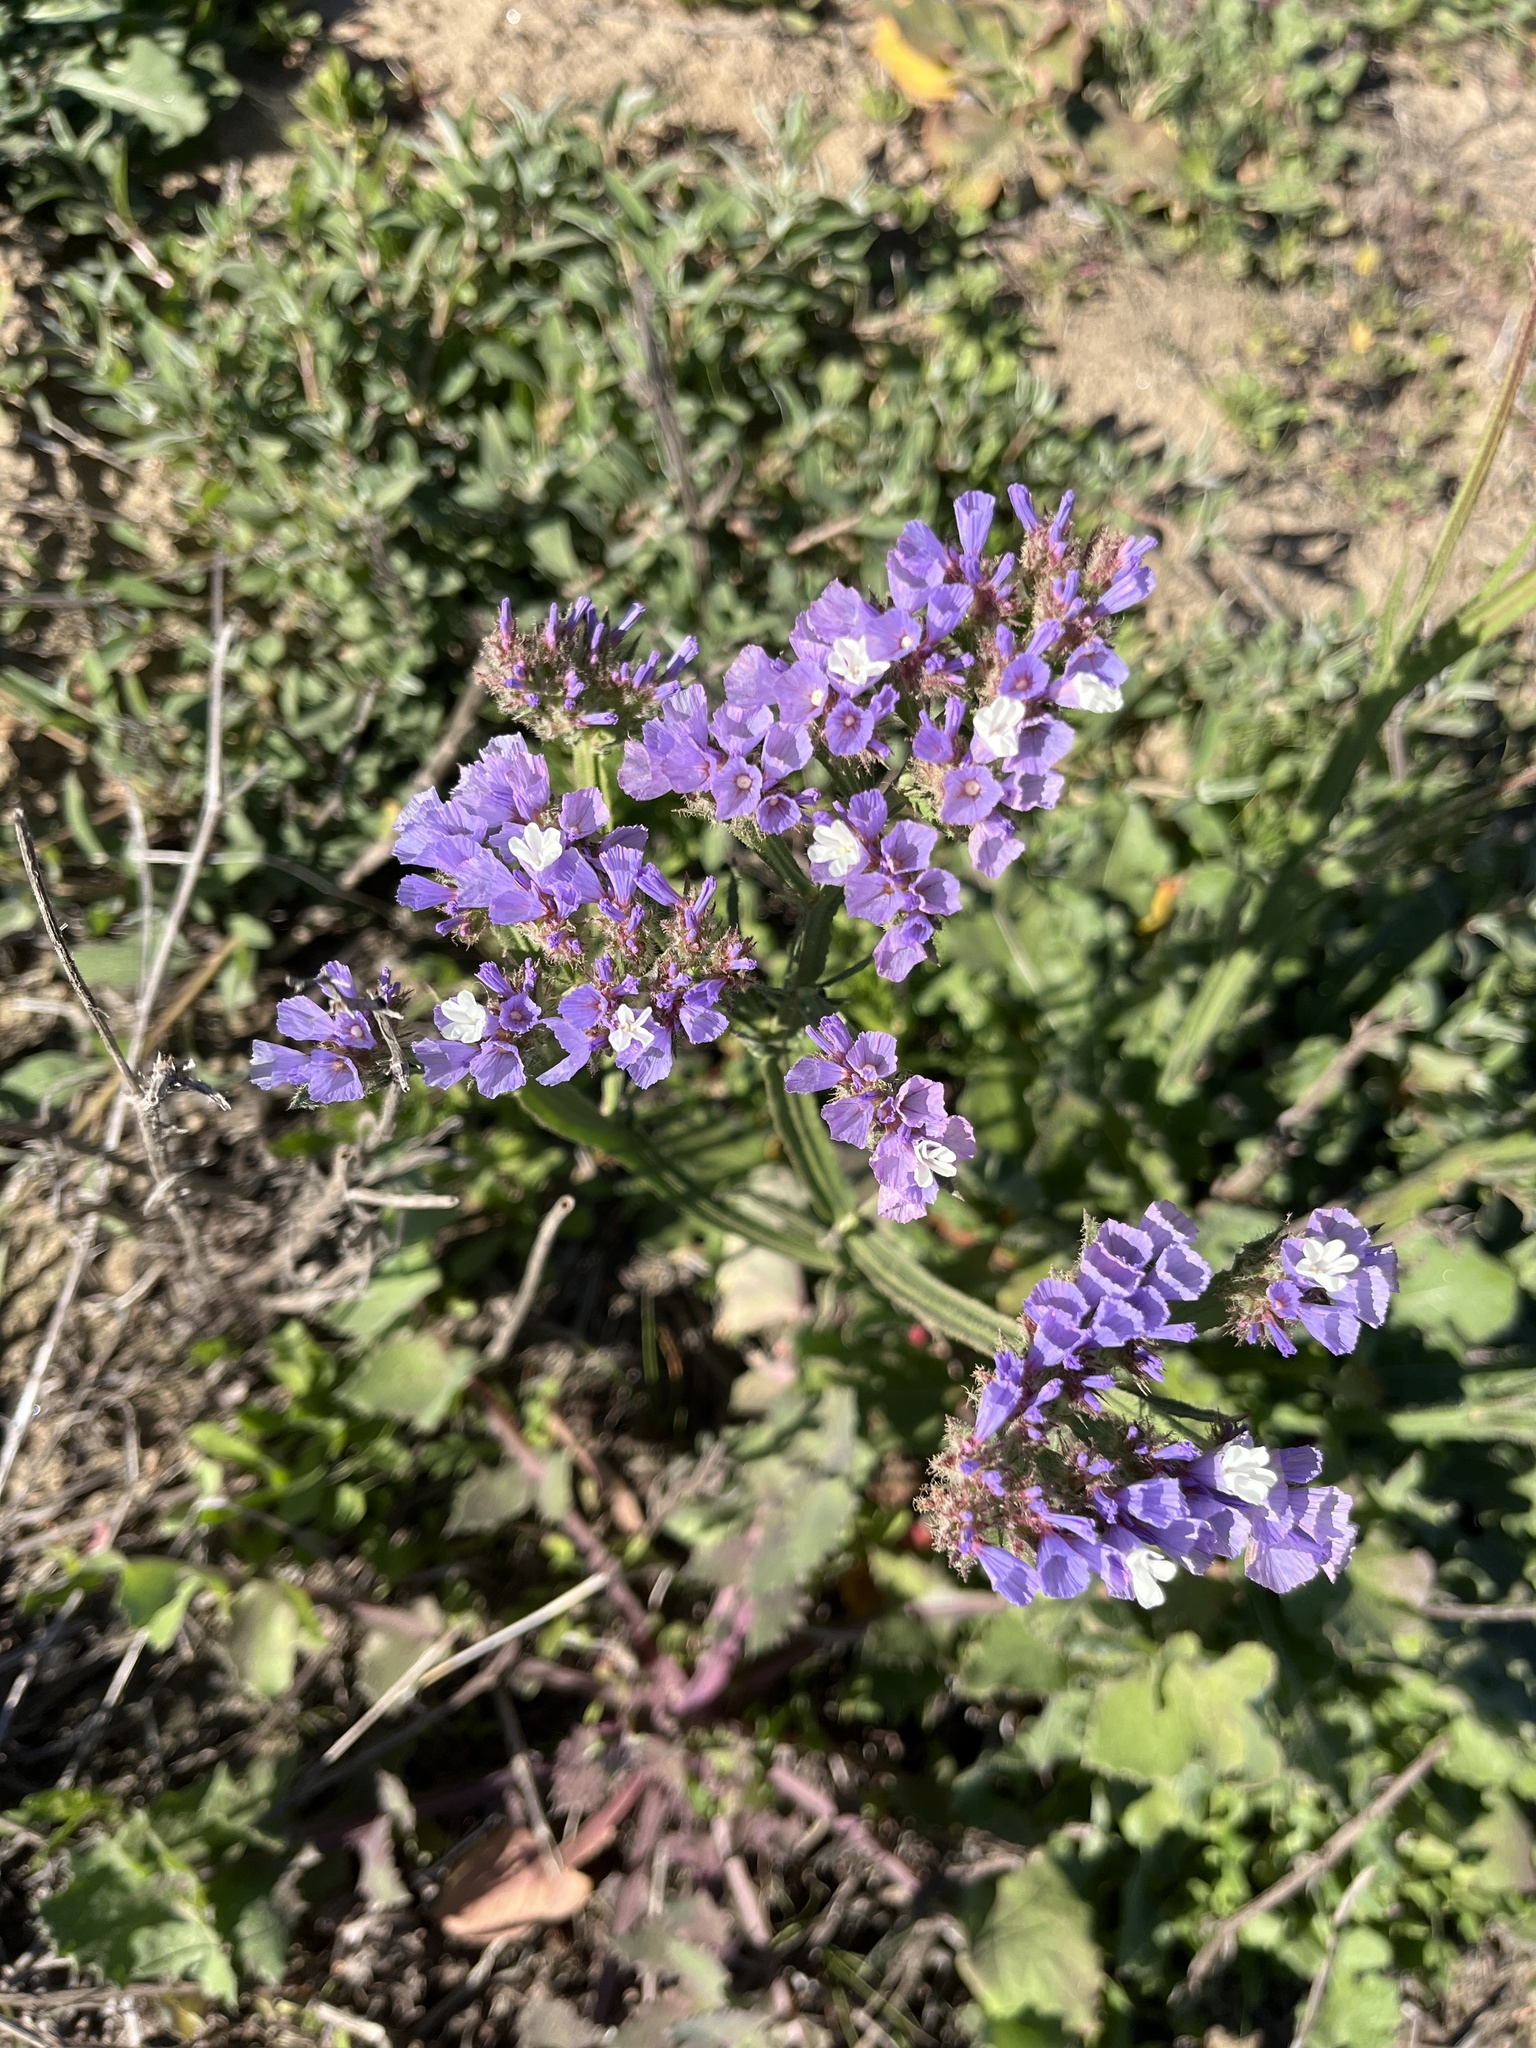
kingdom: Plantae
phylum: Tracheophyta
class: Magnoliopsida
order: Caryophyllales
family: Plumbaginaceae
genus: Limonium
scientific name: Limonium sinuatum
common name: Statice
